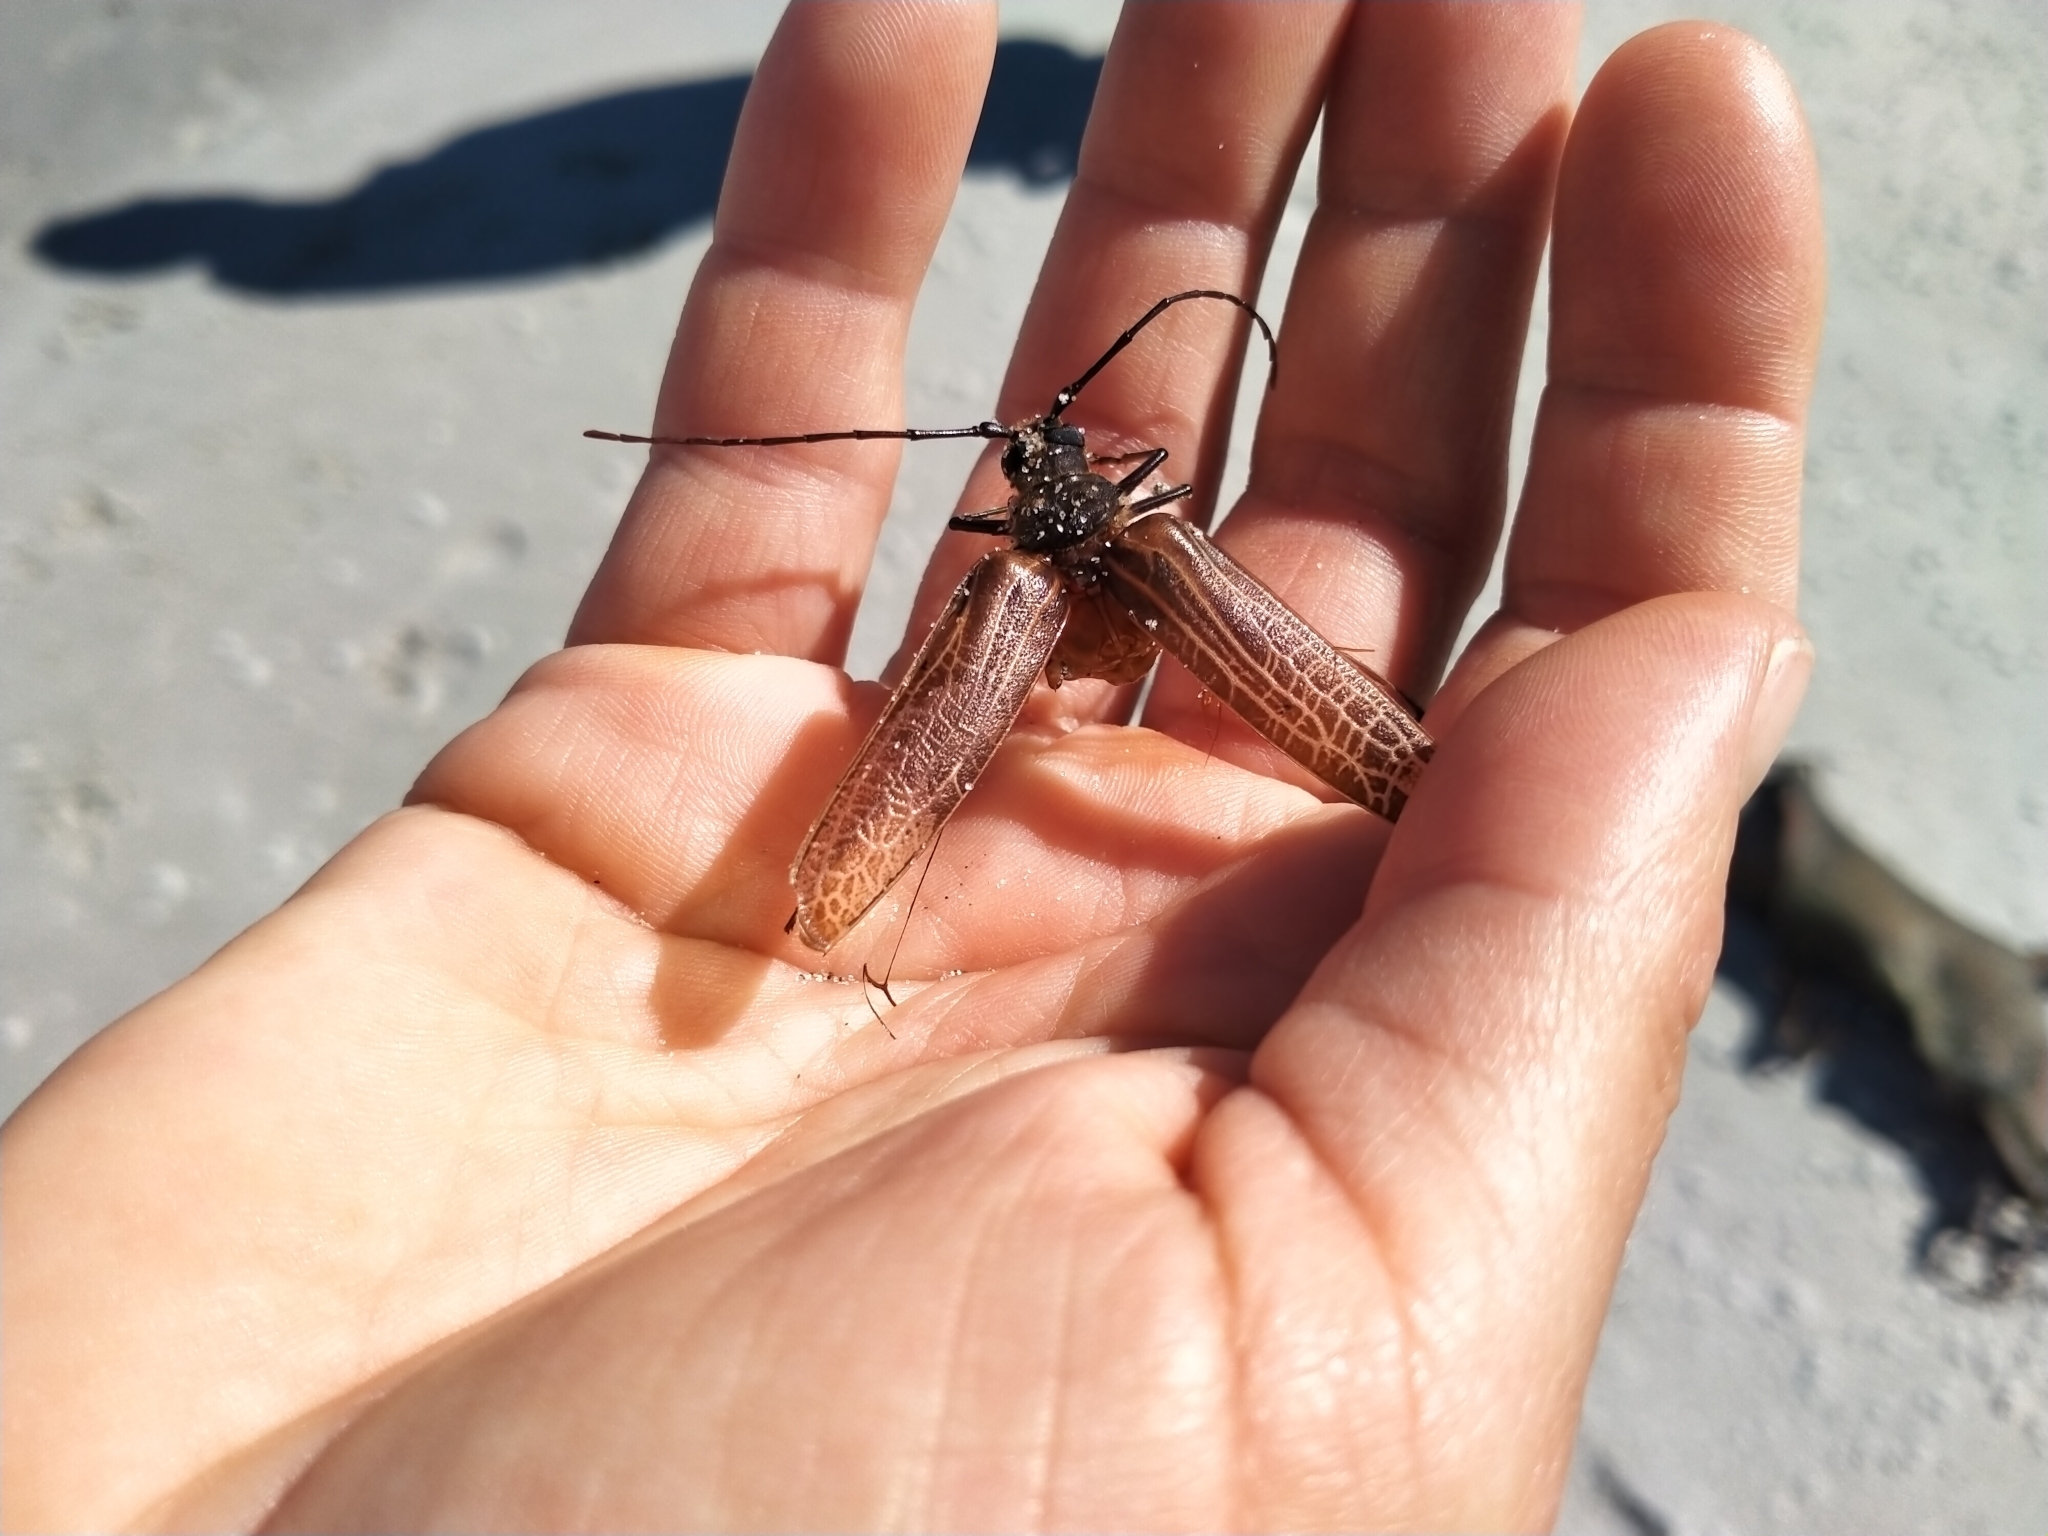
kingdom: Animalia
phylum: Arthropoda
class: Insecta
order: Coleoptera
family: Cerambycidae
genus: Prionoplus
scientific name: Prionoplus reticularis
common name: Huhu beetle
